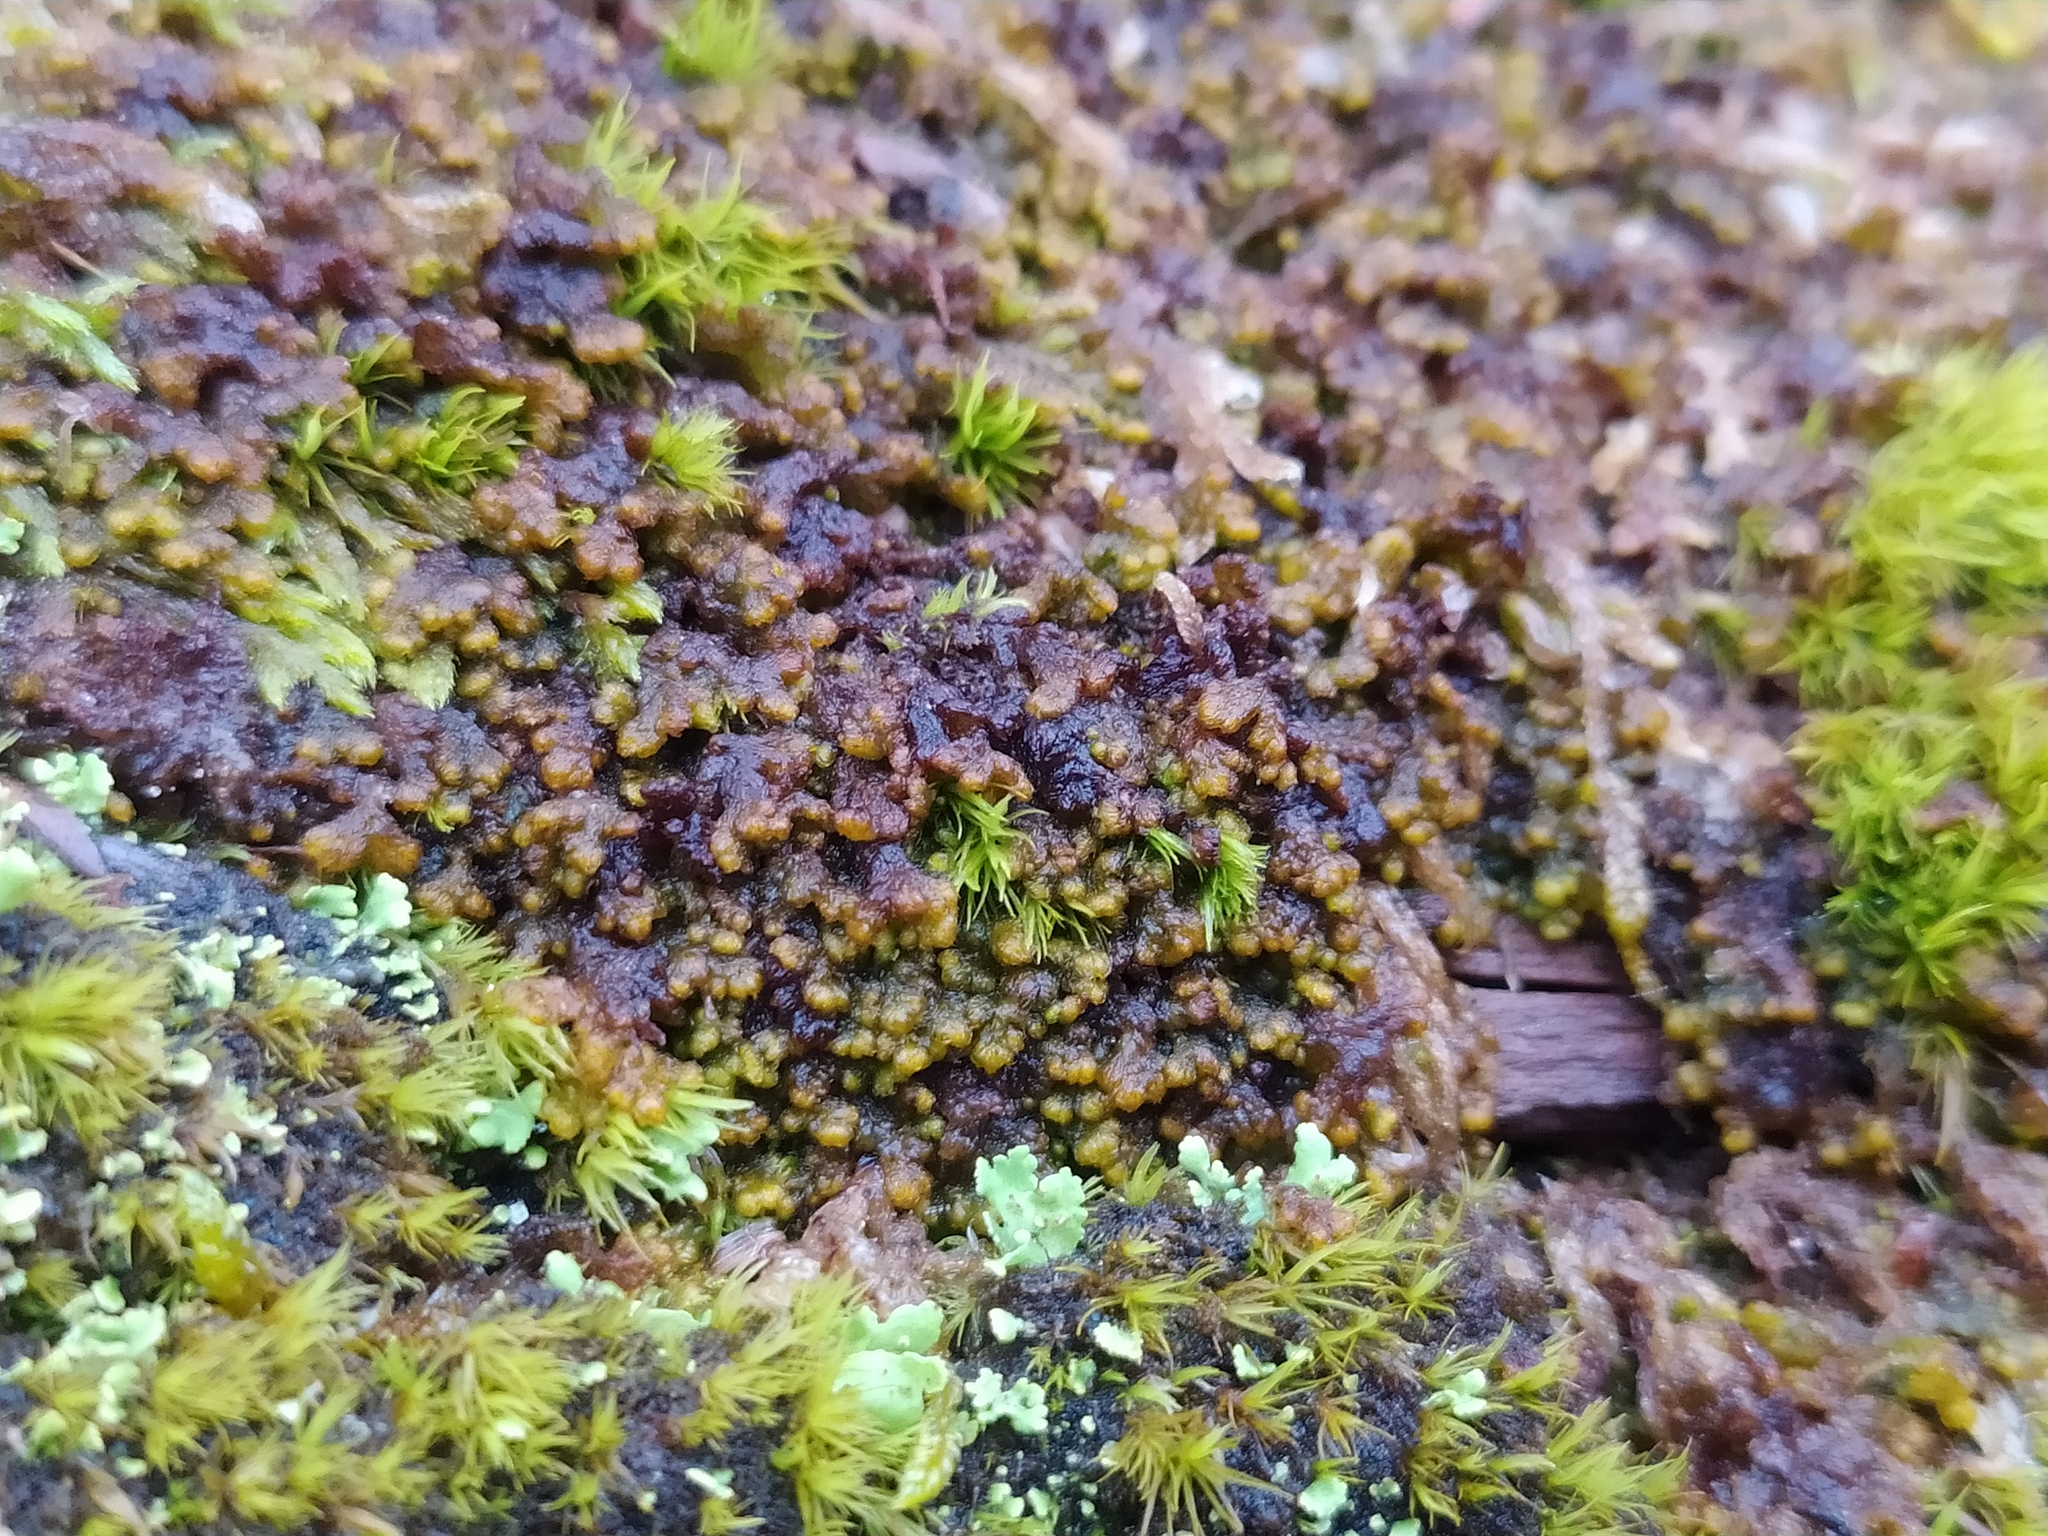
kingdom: Plantae
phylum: Marchantiophyta
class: Jungermanniopsida
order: Ptilidiales
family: Ptilidiaceae
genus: Ptilidium
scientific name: Ptilidium pulcherrimum
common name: Tree fringewort
